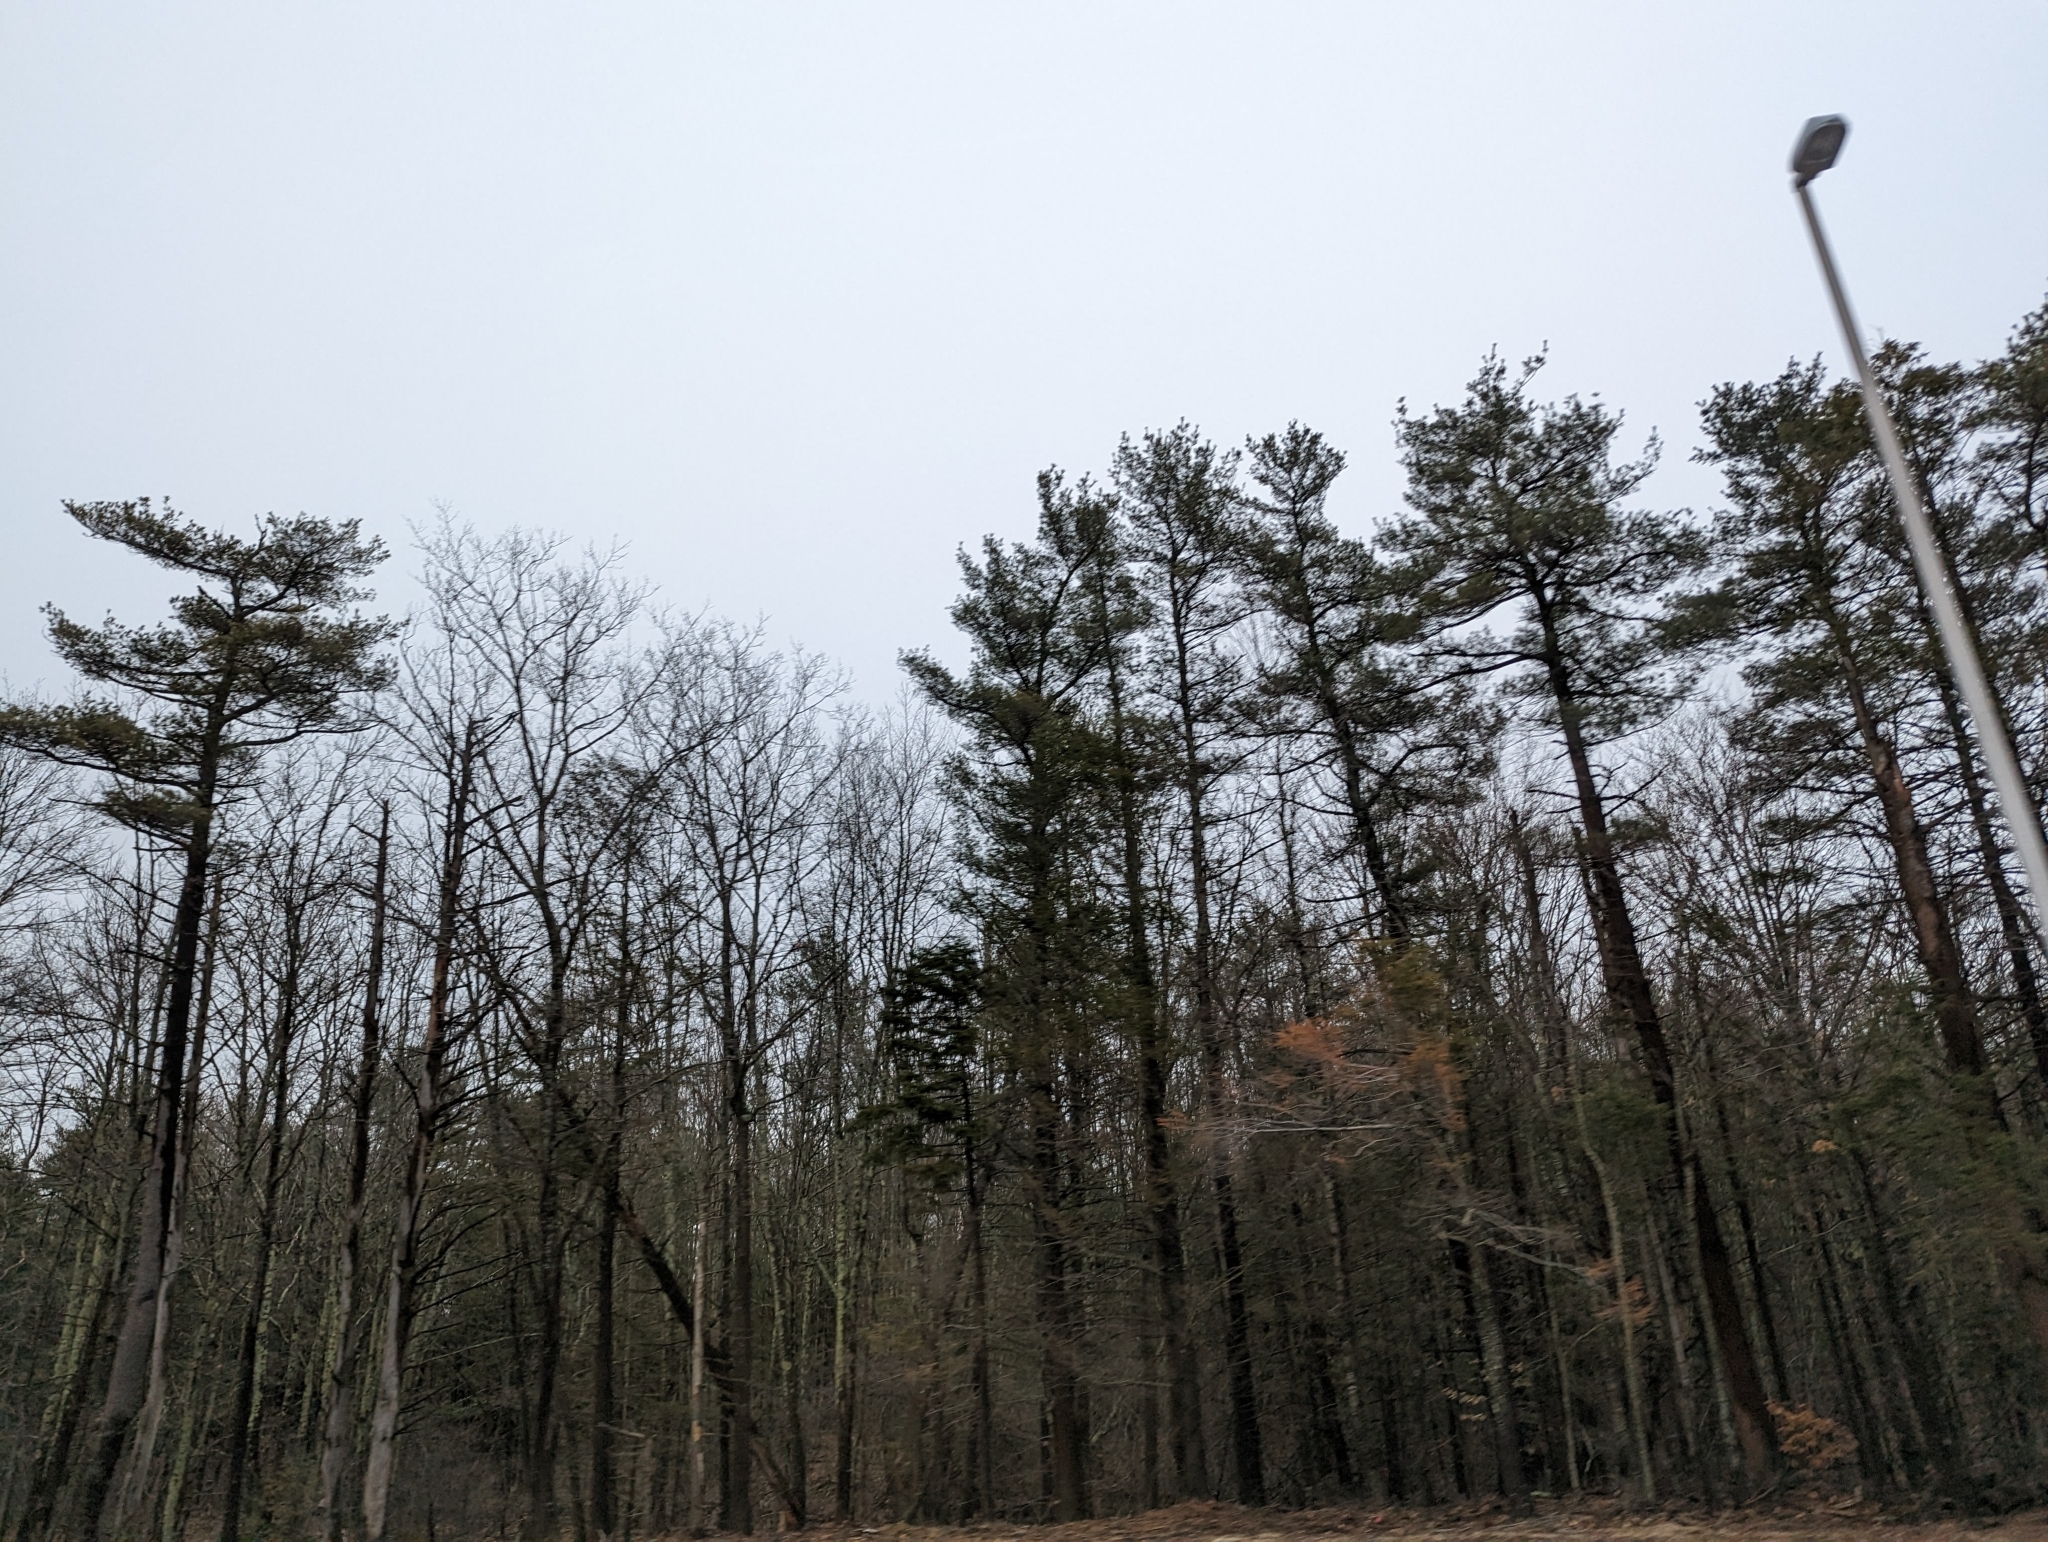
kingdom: Plantae
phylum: Tracheophyta
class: Pinopsida
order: Pinales
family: Pinaceae
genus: Pinus
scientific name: Pinus strobus
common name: Weymouth pine
